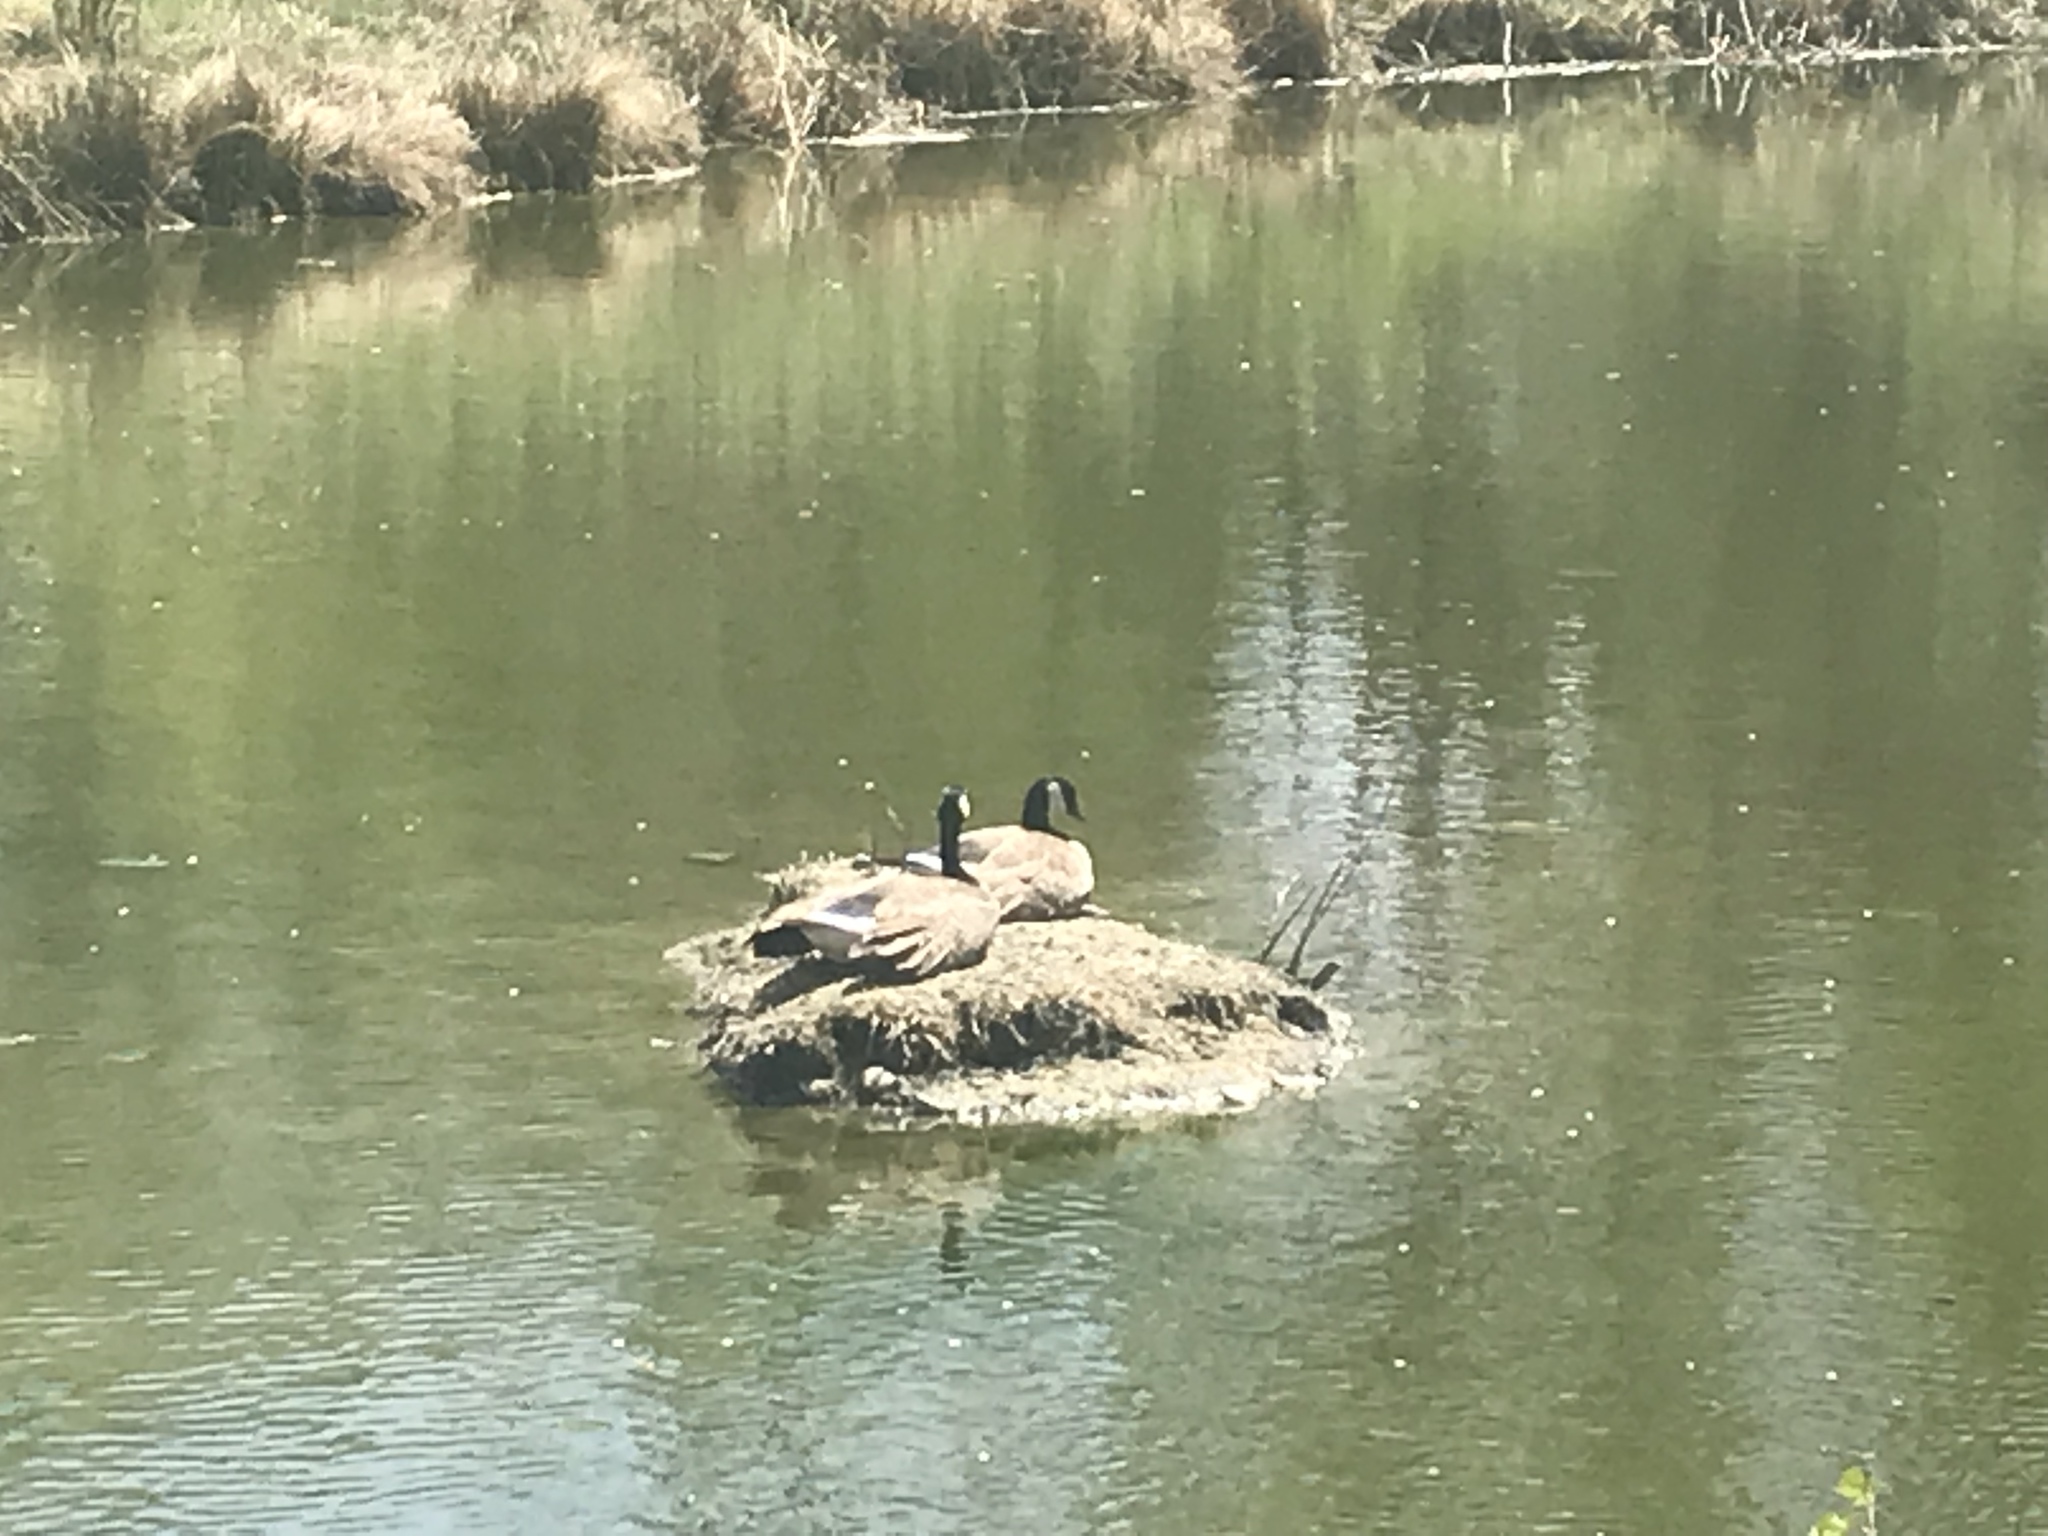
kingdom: Animalia
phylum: Chordata
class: Aves
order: Anseriformes
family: Anatidae
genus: Branta
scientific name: Branta canadensis
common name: Canada goose
